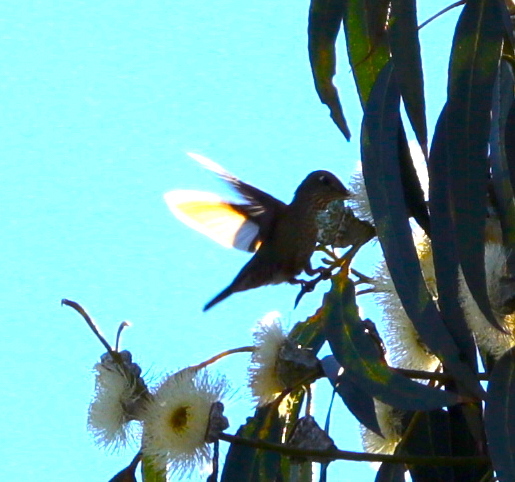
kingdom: Plantae
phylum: Tracheophyta
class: Magnoliopsida
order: Myrtales
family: Myrtaceae
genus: Eucalyptus
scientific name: Eucalyptus globulus
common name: Southern blue-gum
